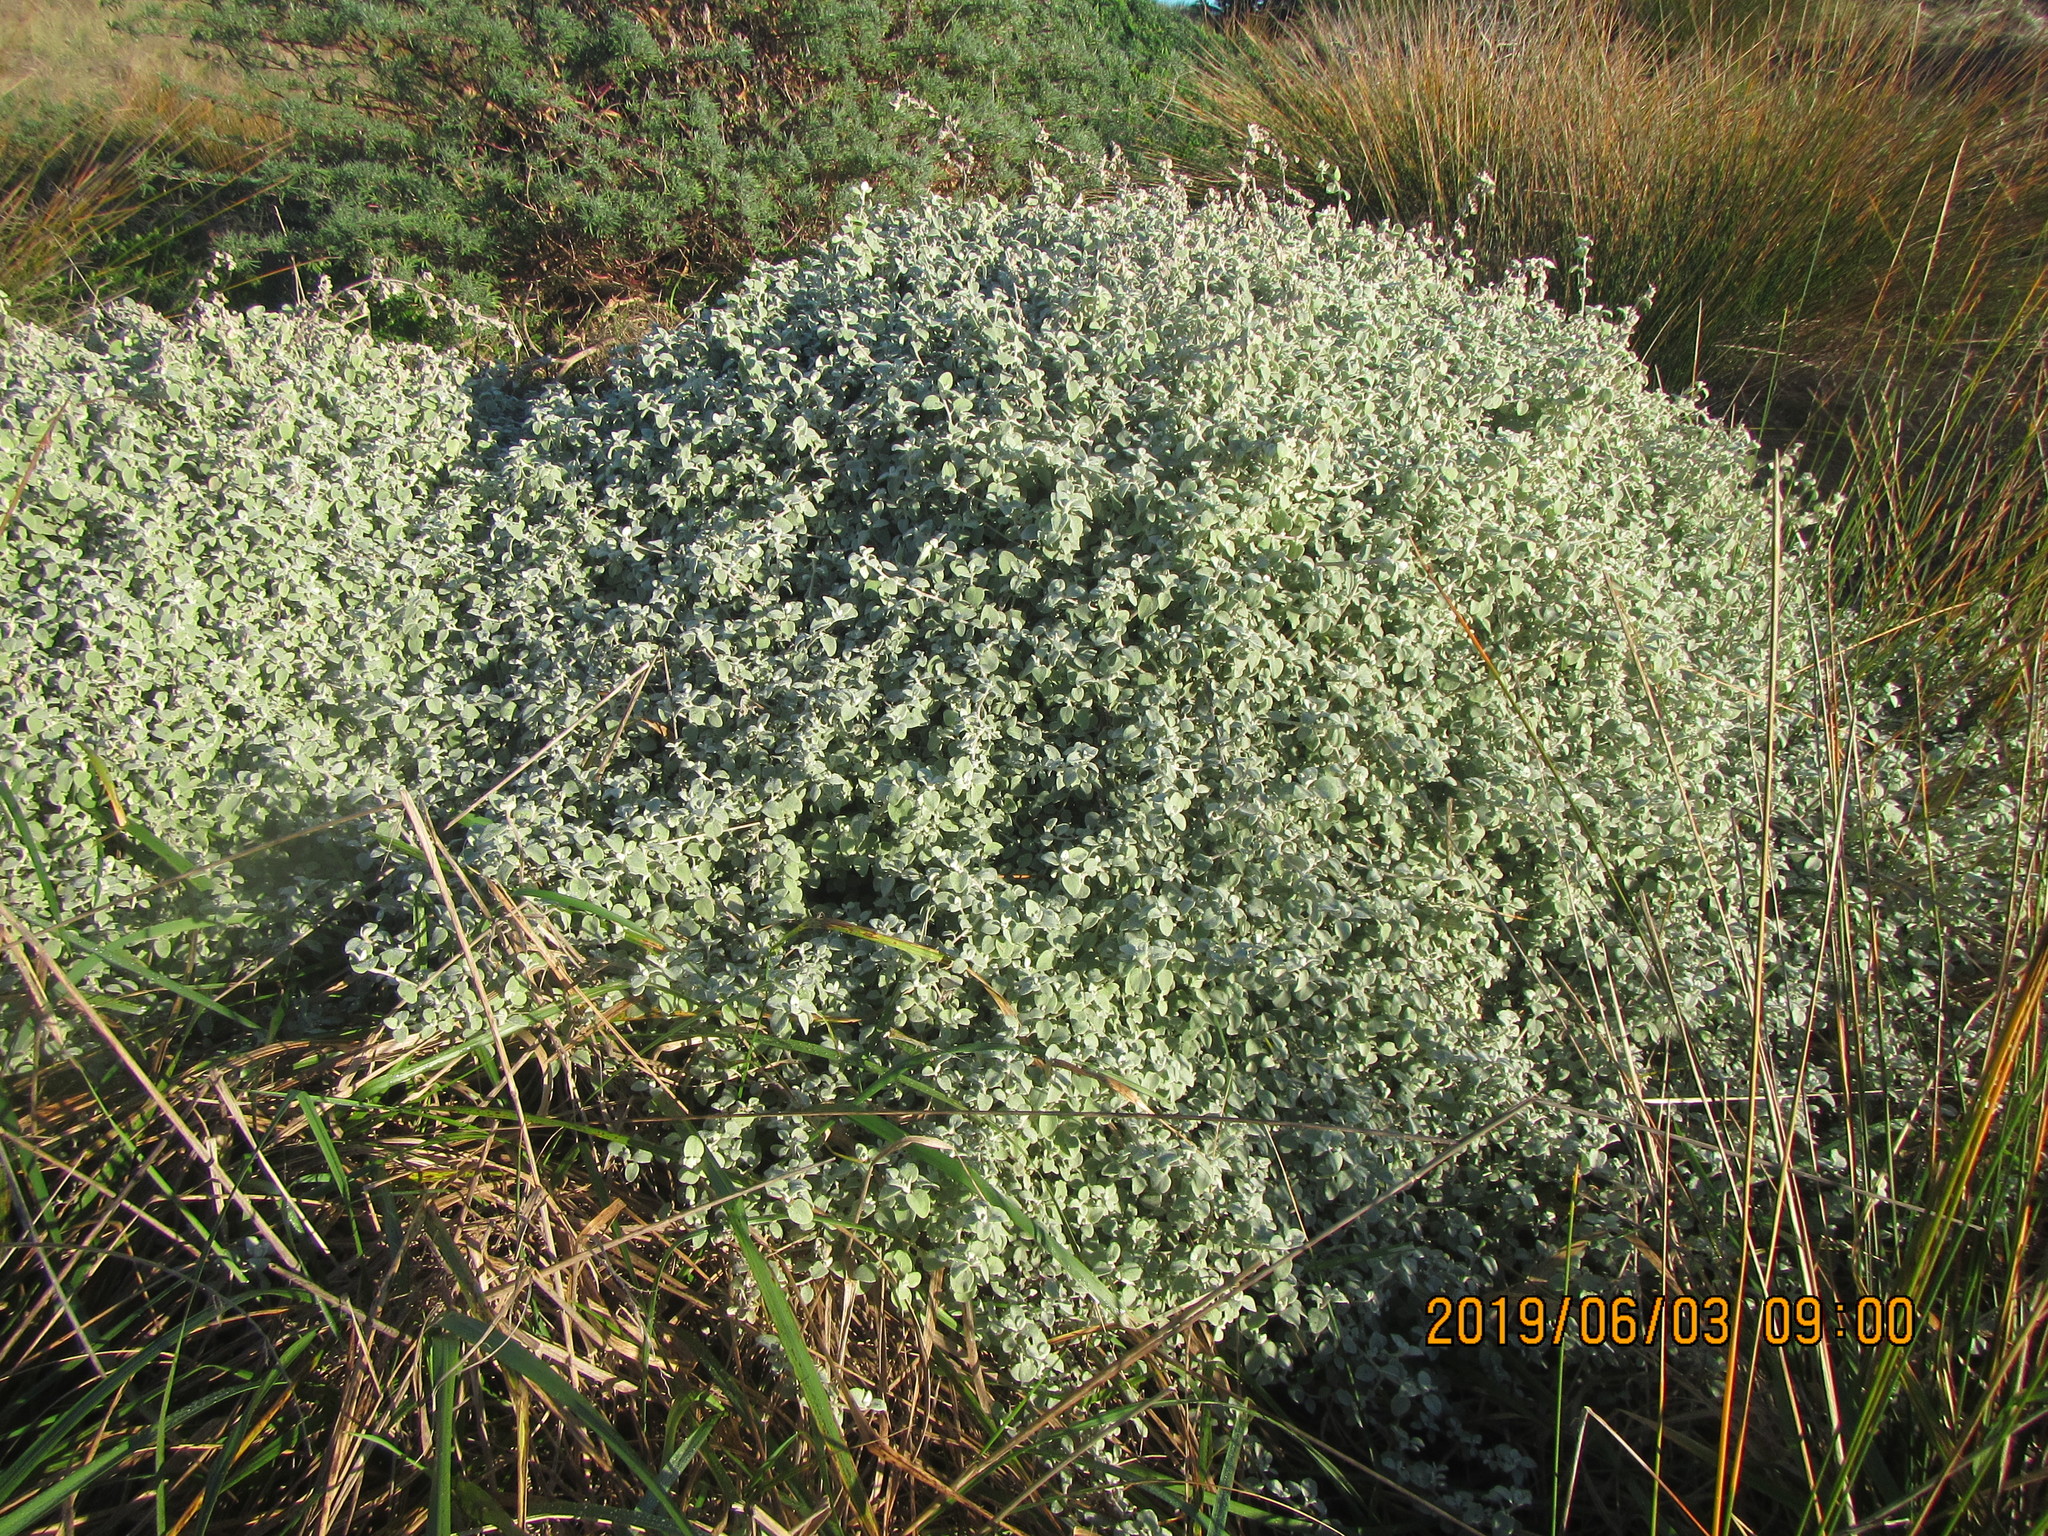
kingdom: Plantae
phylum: Tracheophyta
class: Magnoliopsida
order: Asterales
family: Asteraceae
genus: Helichrysum
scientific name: Helichrysum petiolare
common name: Licorice-plant
